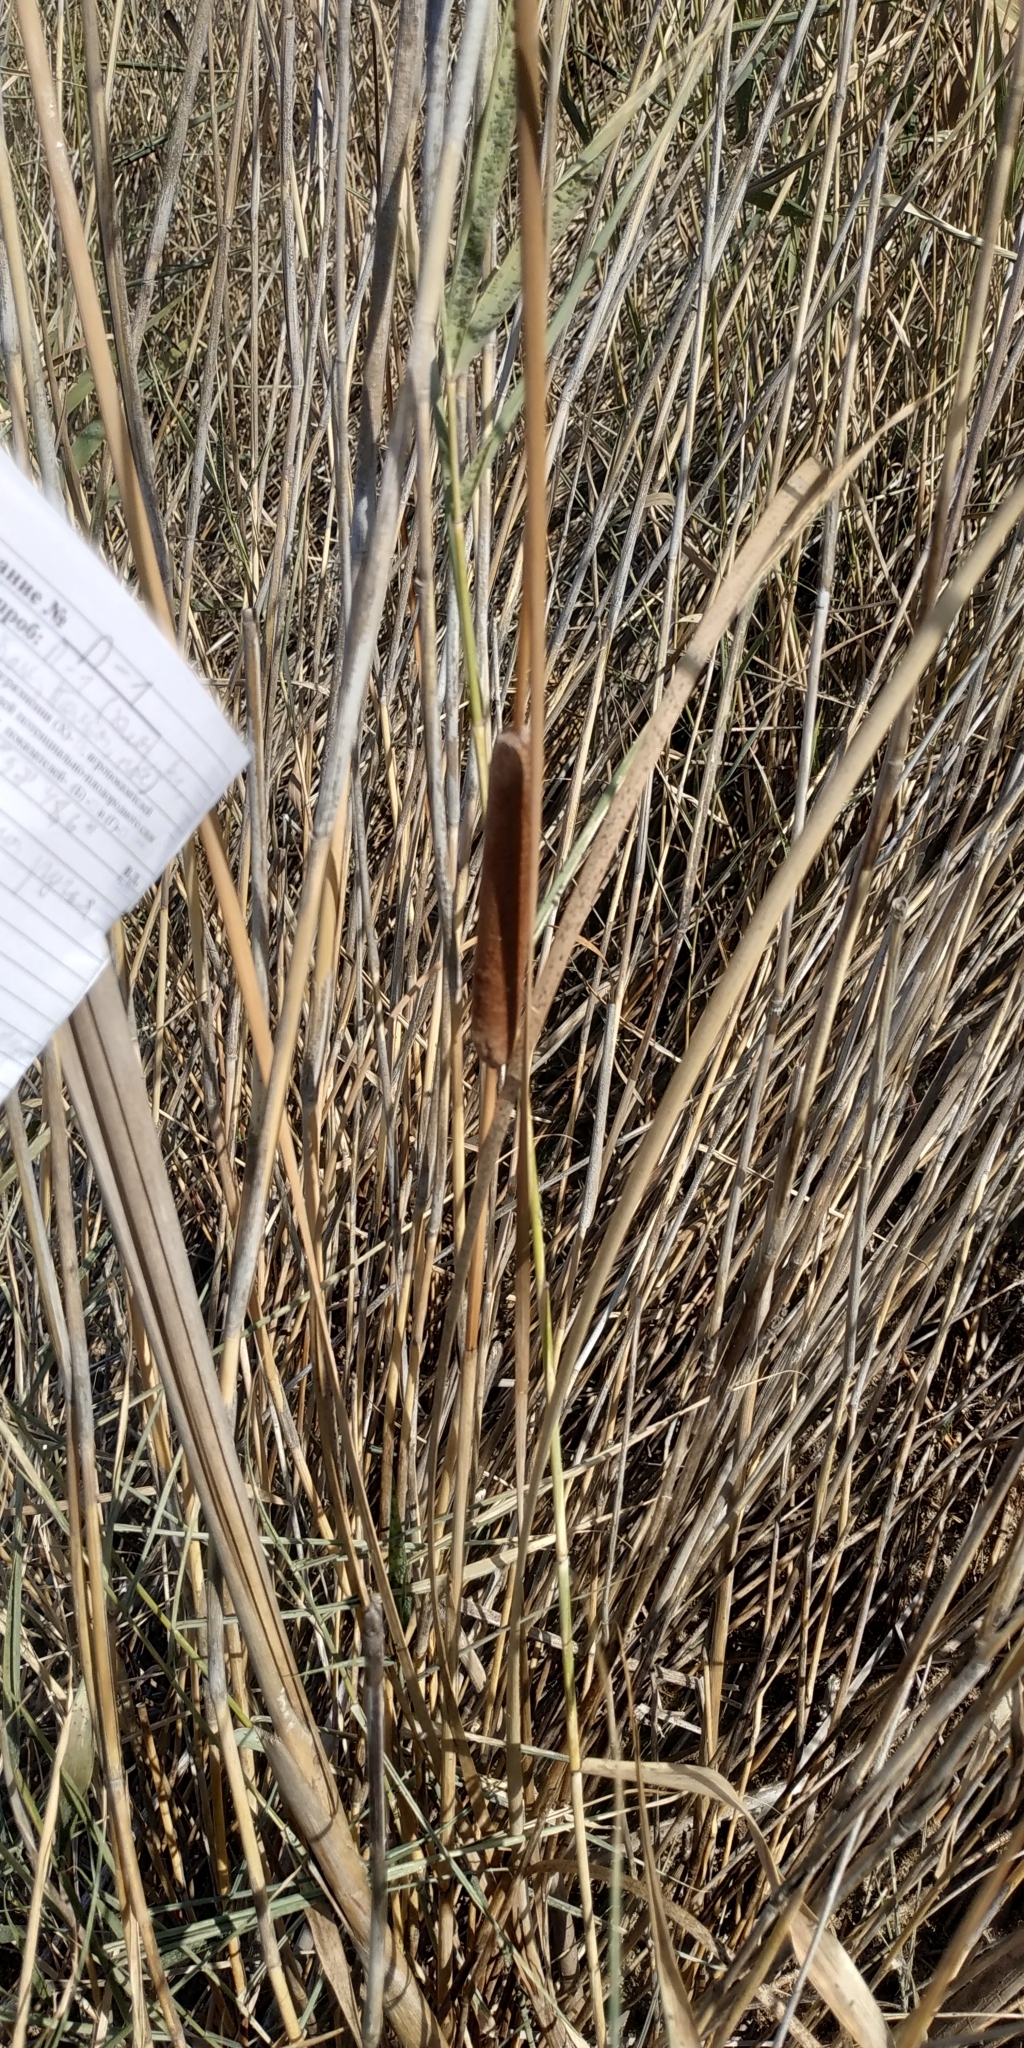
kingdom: Plantae
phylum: Tracheophyta
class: Liliopsida
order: Poales
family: Typhaceae
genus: Typha
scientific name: Typha angustifolia
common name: Lesser bulrush
